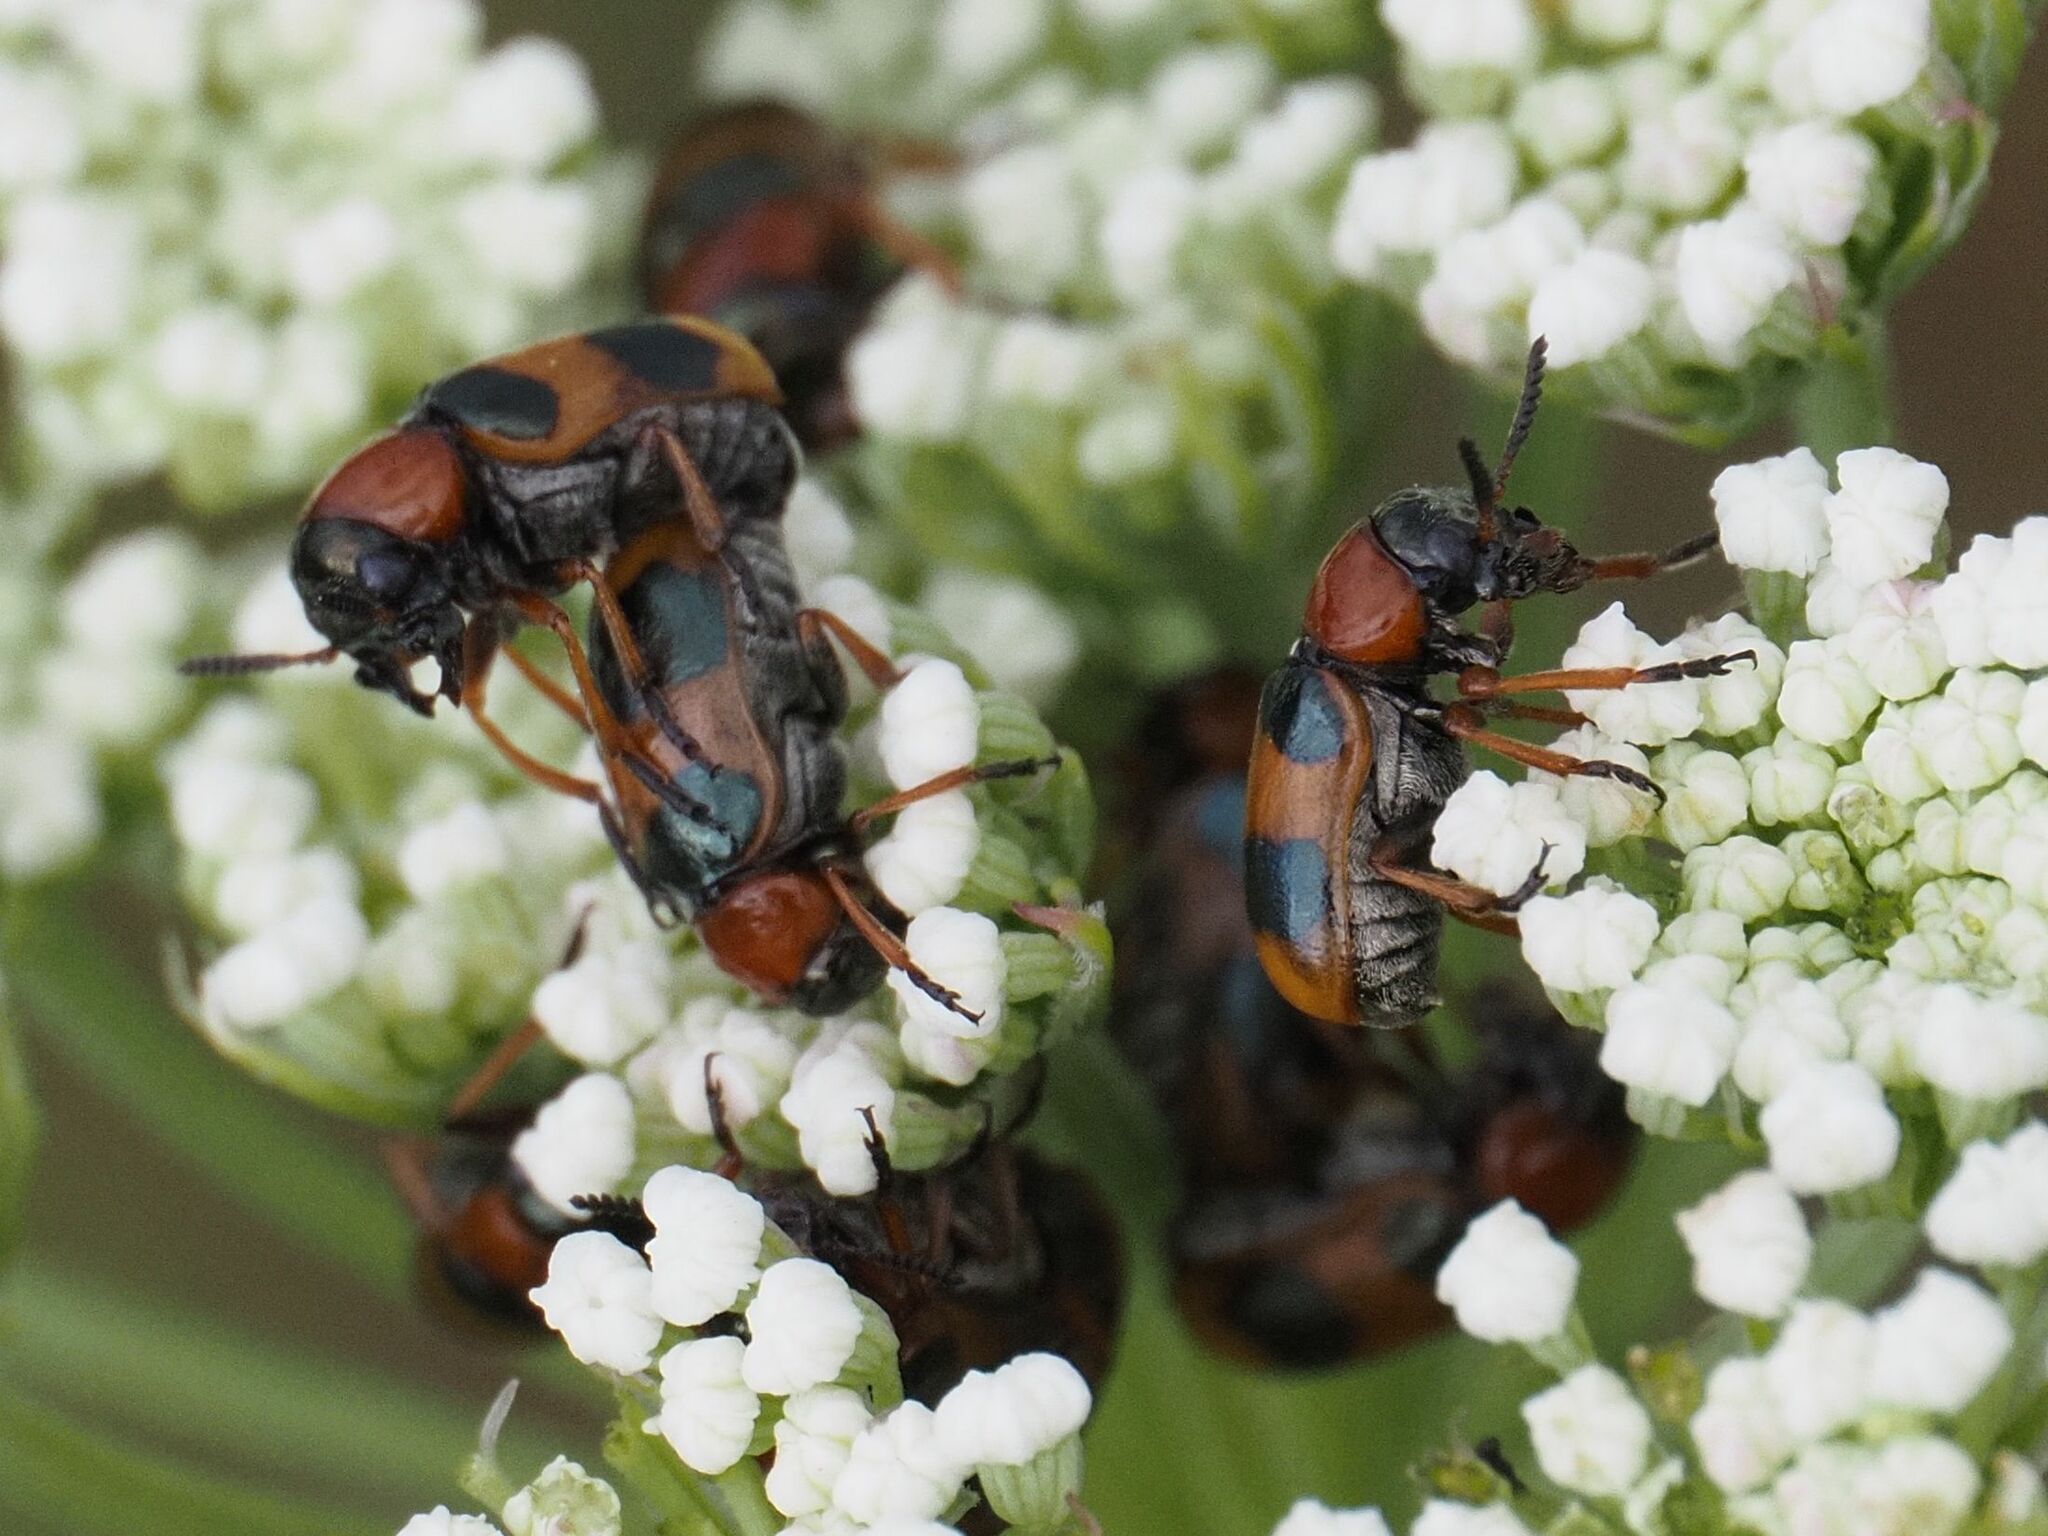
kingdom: Animalia
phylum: Arthropoda
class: Insecta
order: Coleoptera
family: Chrysomelidae
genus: Coptocephala
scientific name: Coptocephala unifasciata
